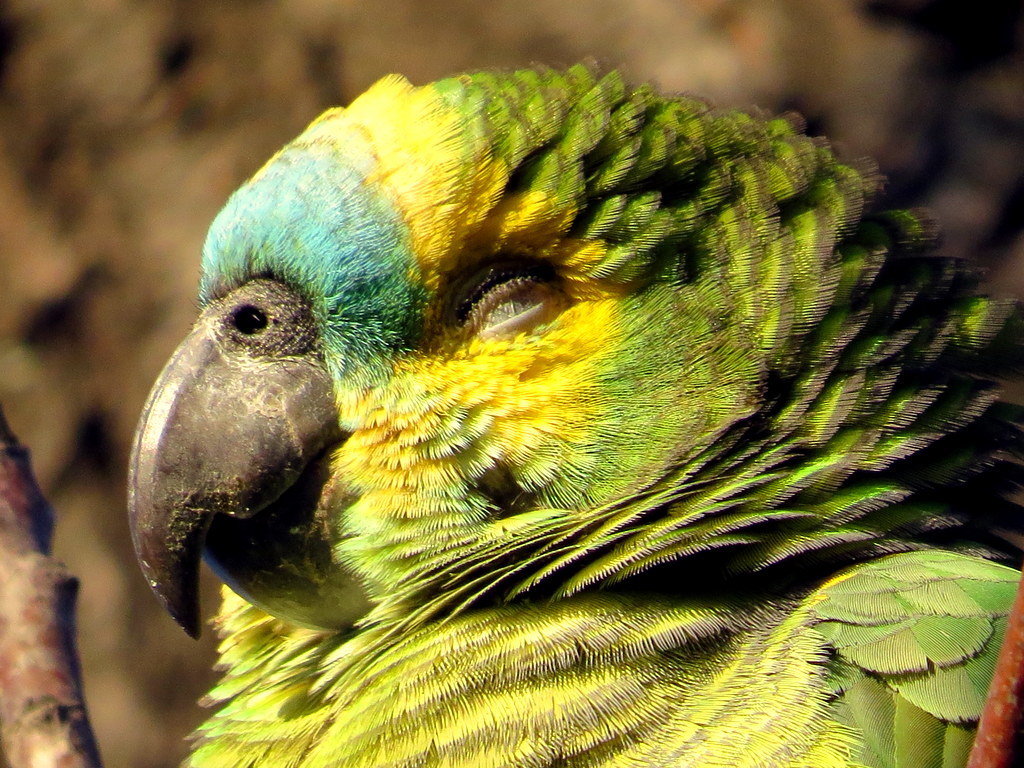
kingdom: Animalia
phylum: Chordata
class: Aves
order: Psittaciformes
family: Psittacidae
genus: Amazona
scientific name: Amazona aestiva
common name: Turquoise-fronted amazon
